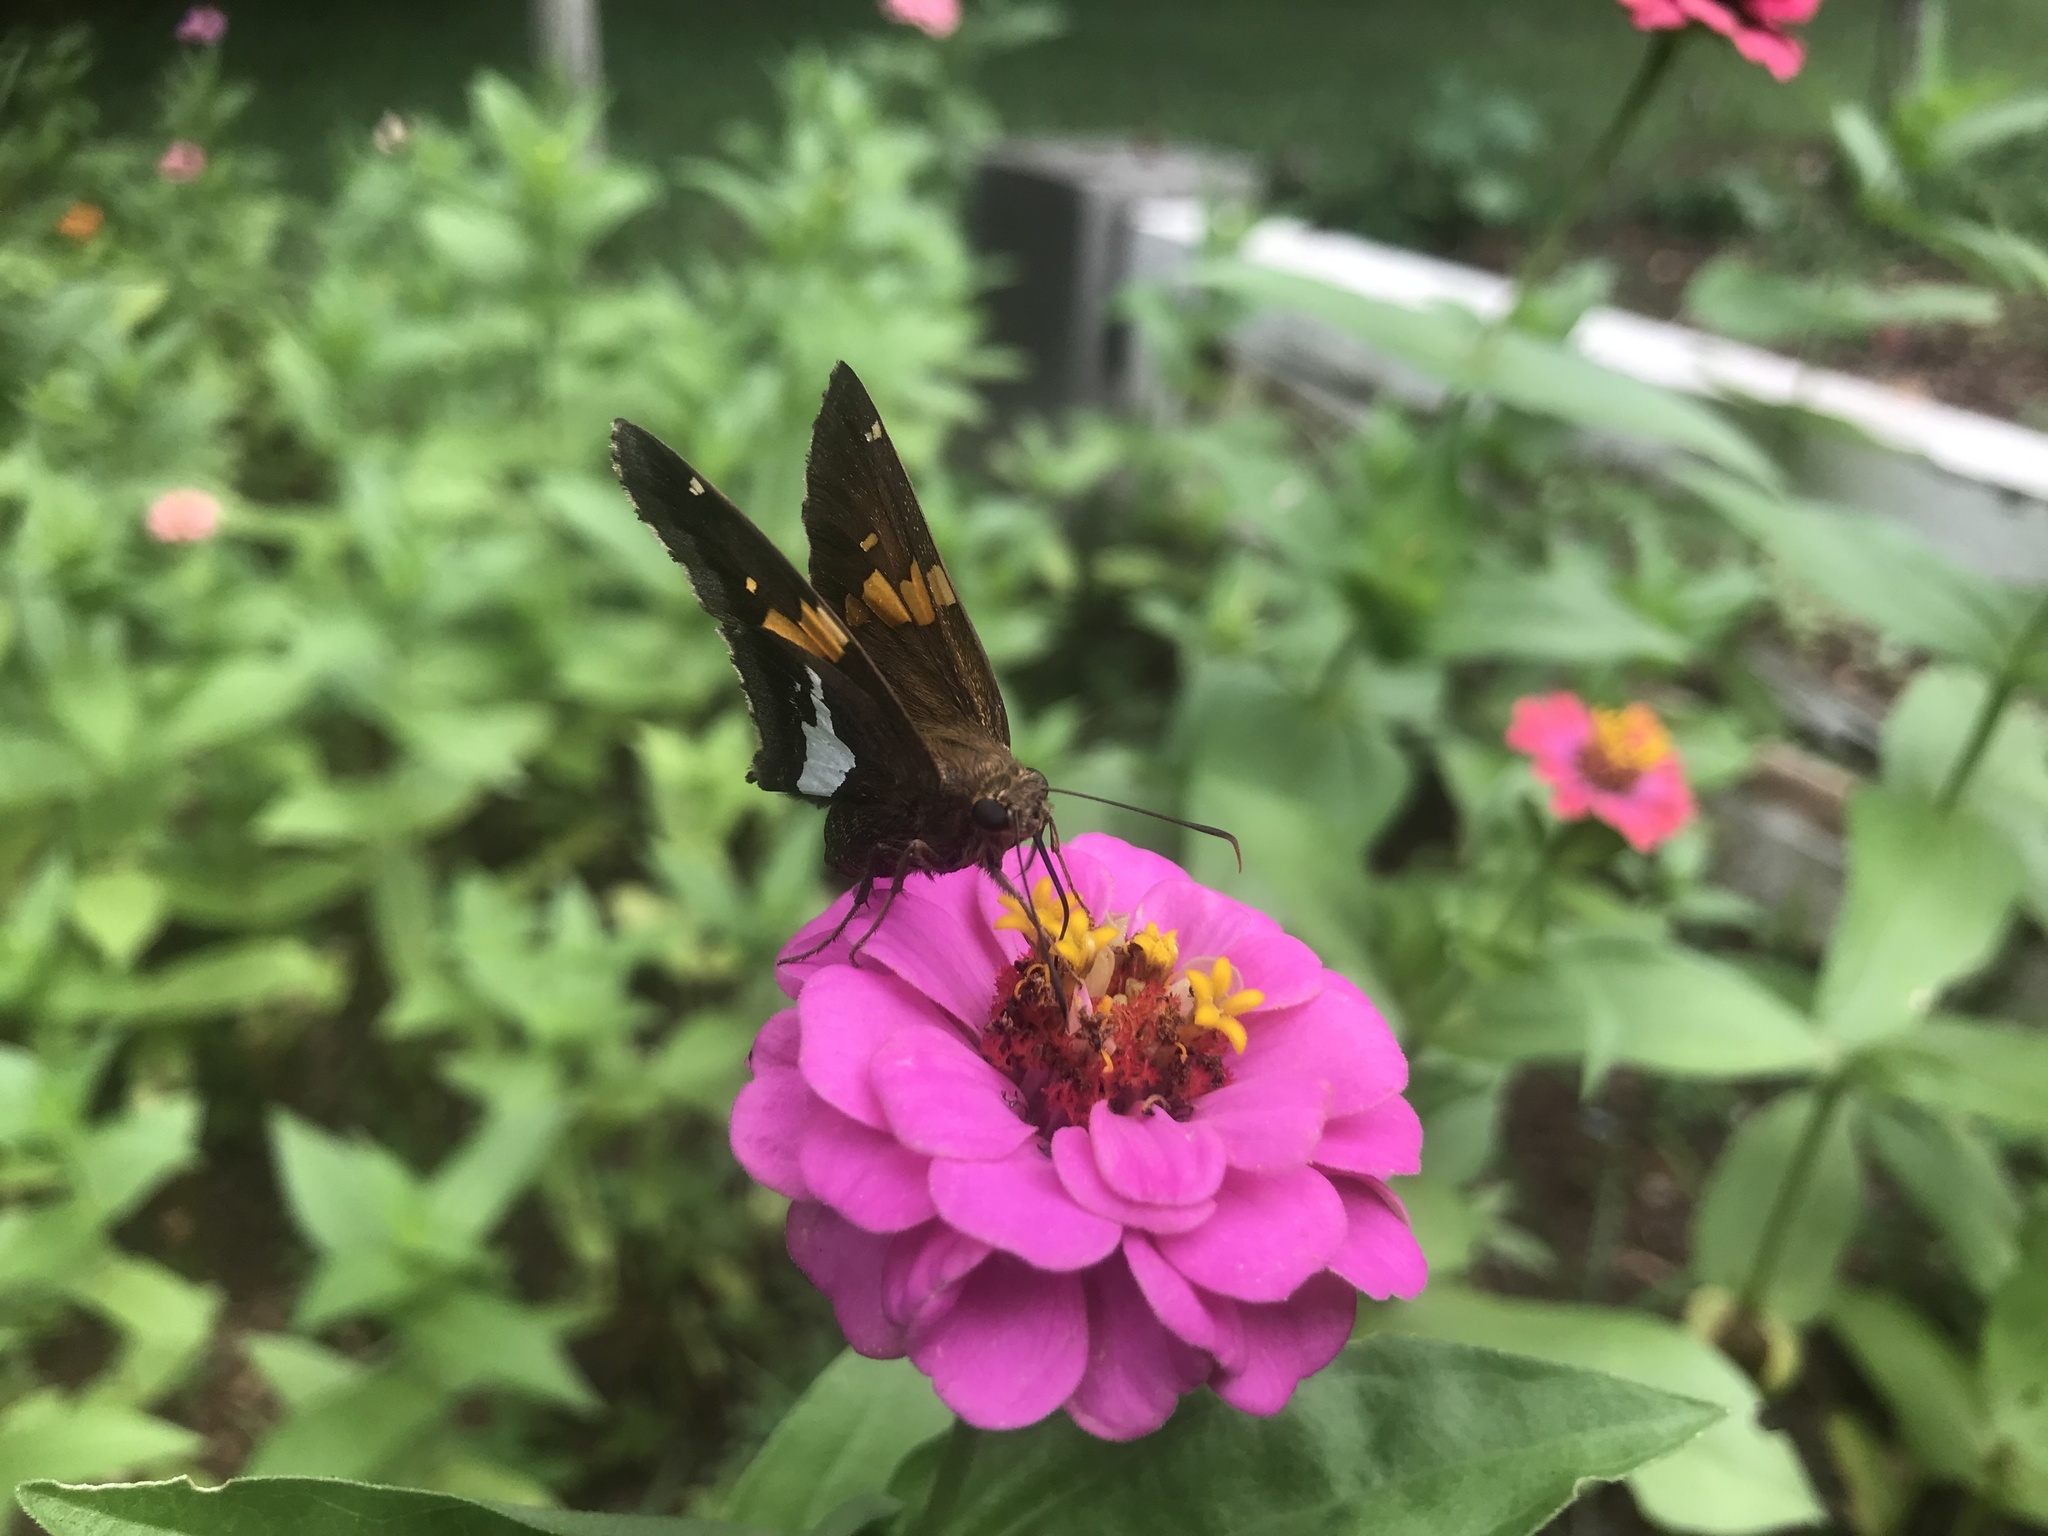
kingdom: Animalia
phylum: Arthropoda
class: Insecta
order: Lepidoptera
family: Hesperiidae
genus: Epargyreus
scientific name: Epargyreus clarus
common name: Silver-spotted skipper
